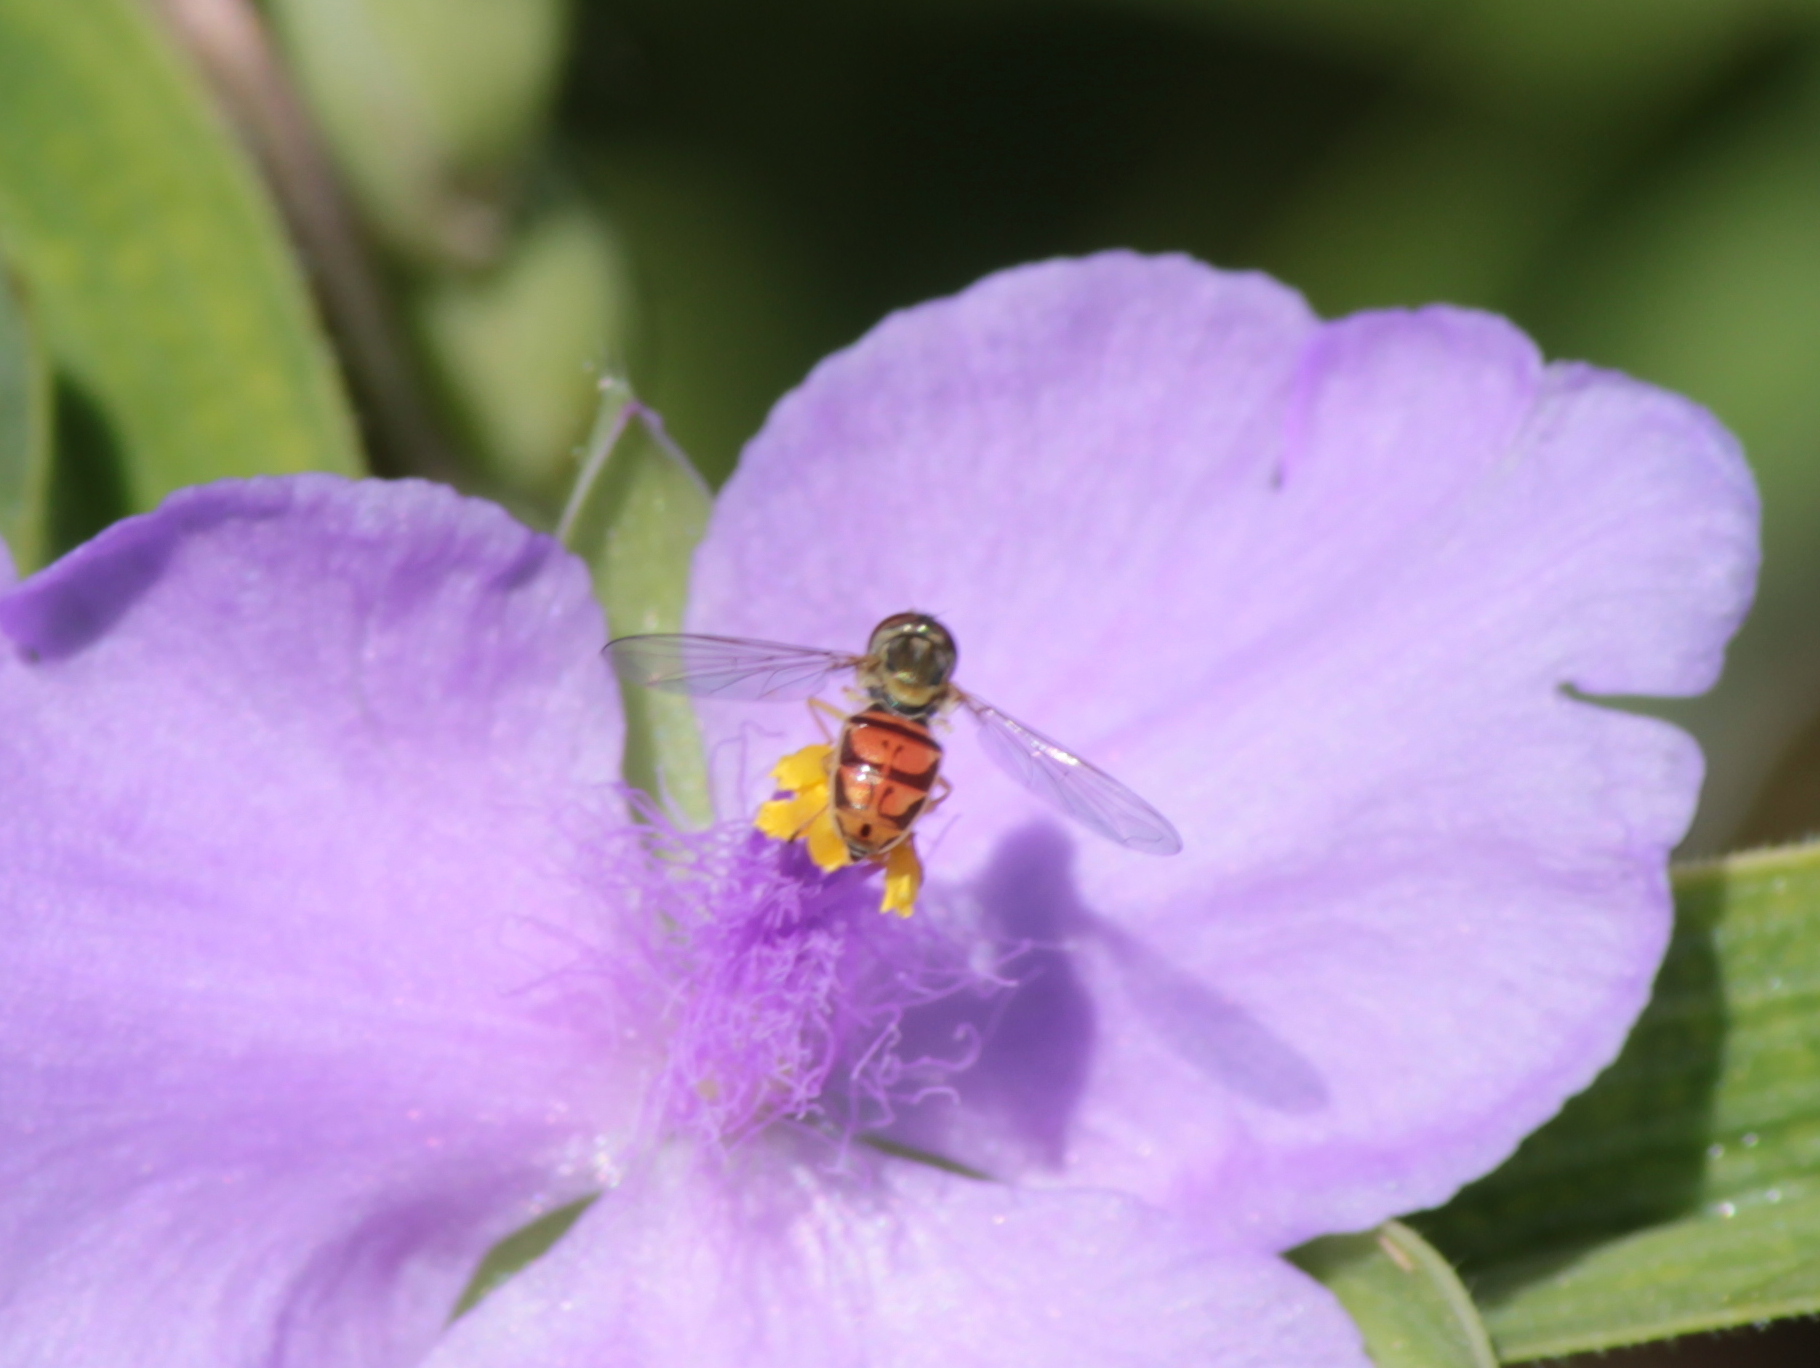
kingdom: Animalia
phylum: Arthropoda
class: Insecta
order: Diptera
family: Syrphidae
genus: Toxomerus
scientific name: Toxomerus marginatus
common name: Syrphid fly
